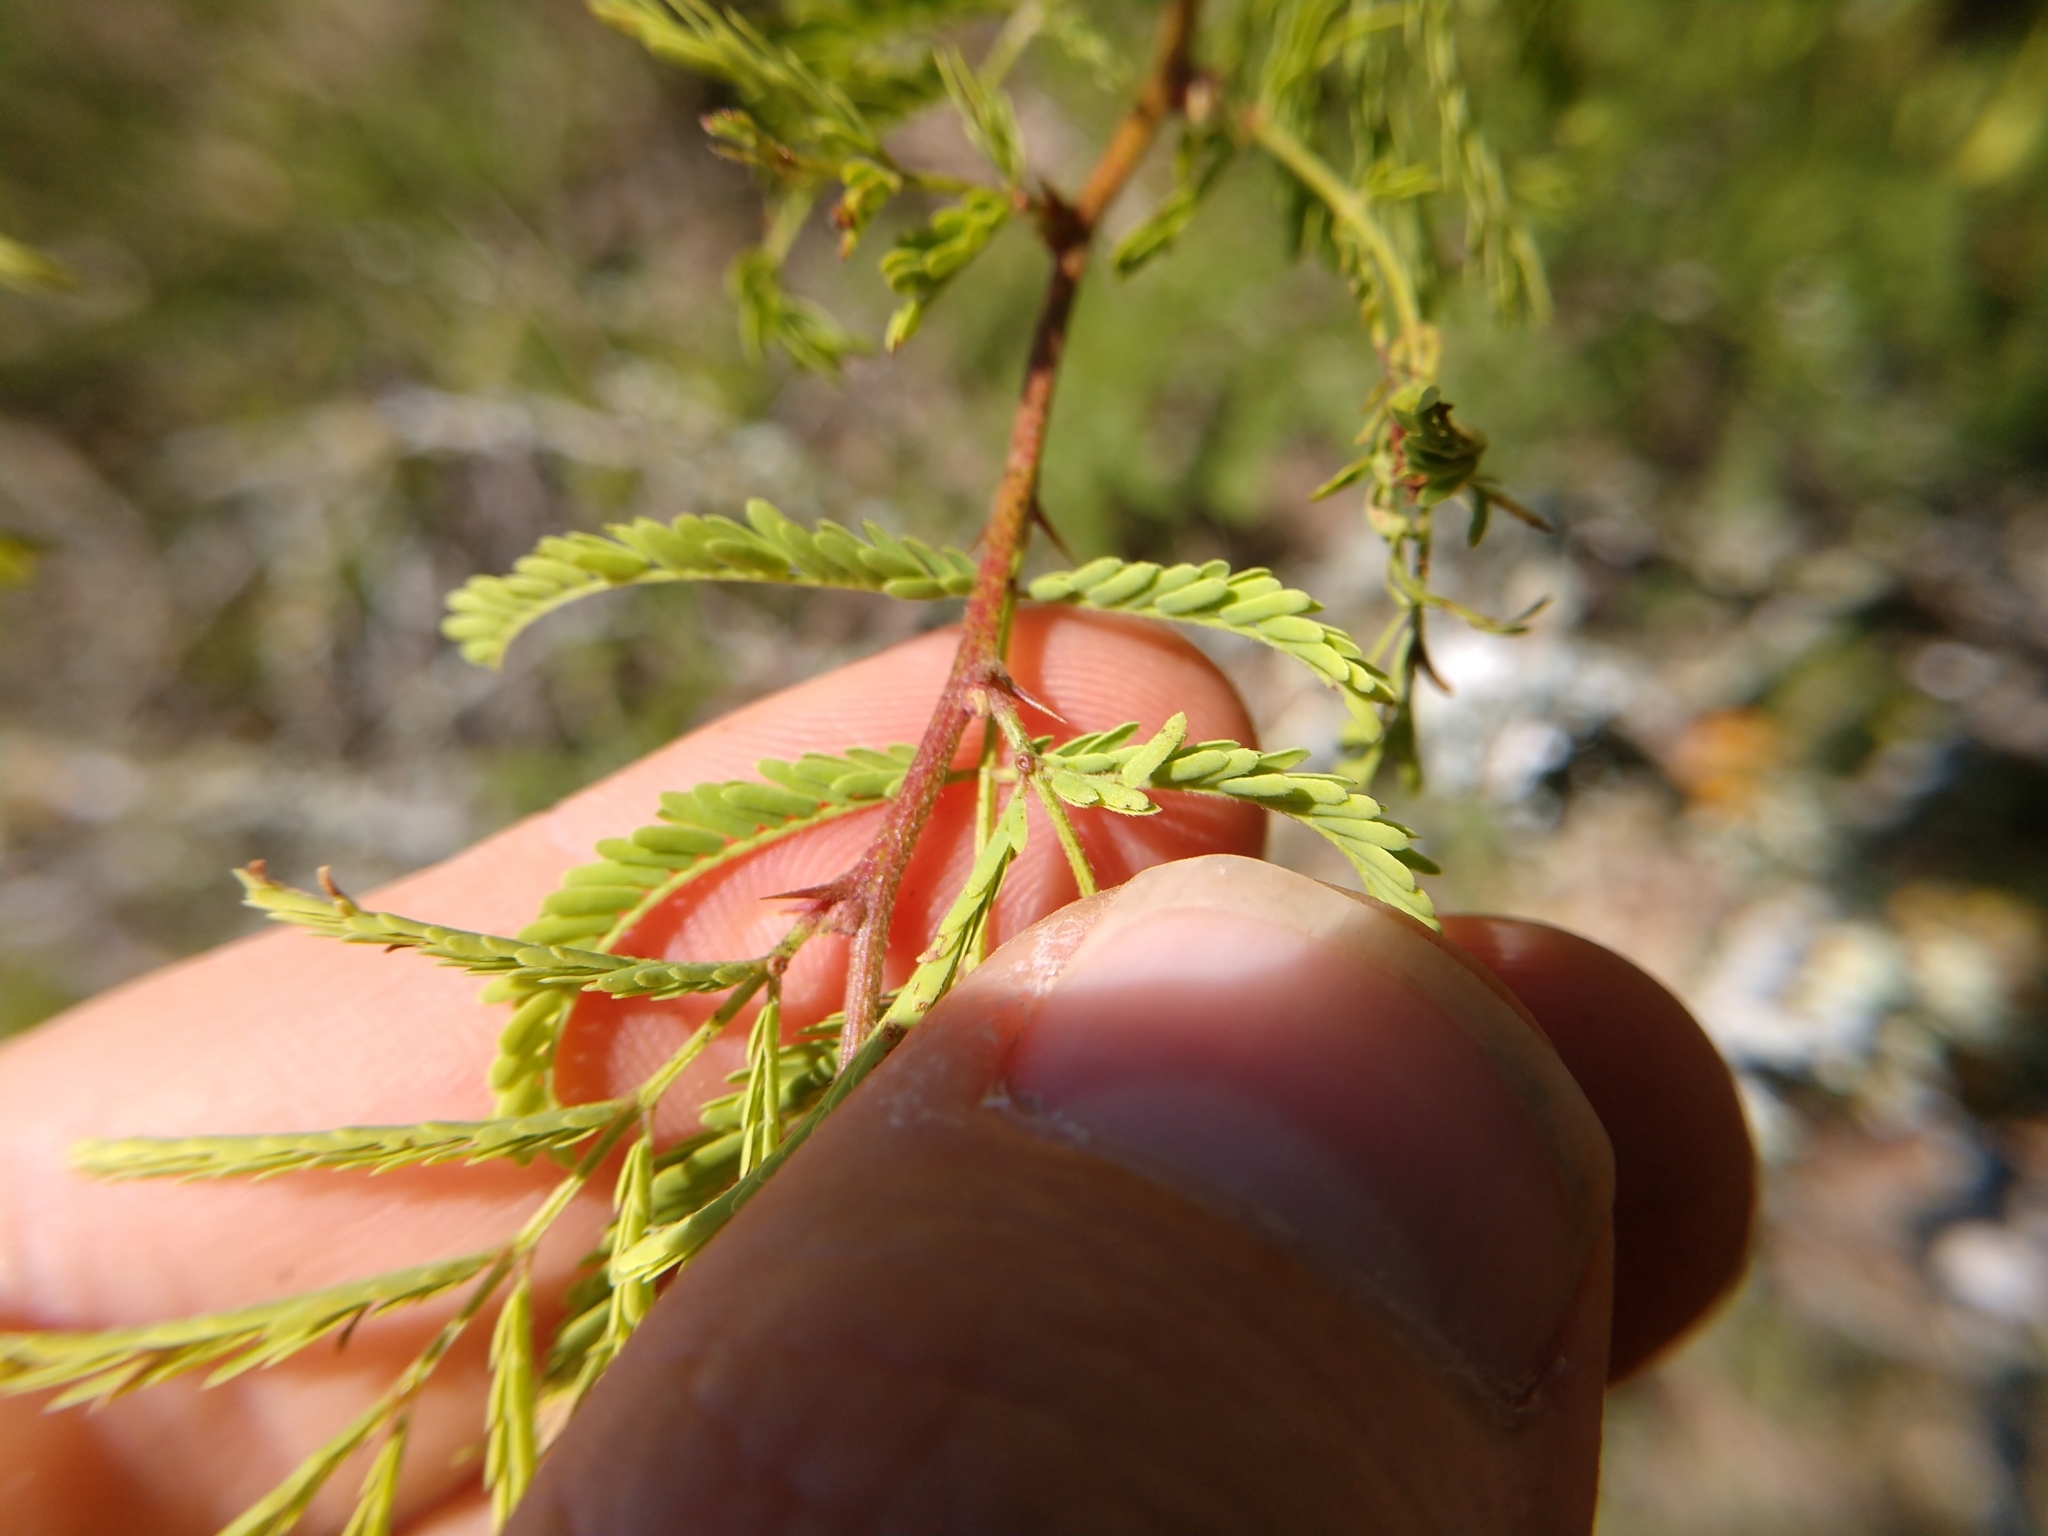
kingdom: Plantae
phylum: Tracheophyta
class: Magnoliopsida
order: Fabales
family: Fabaceae
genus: Vachellia
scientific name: Vachellia schaffneri
